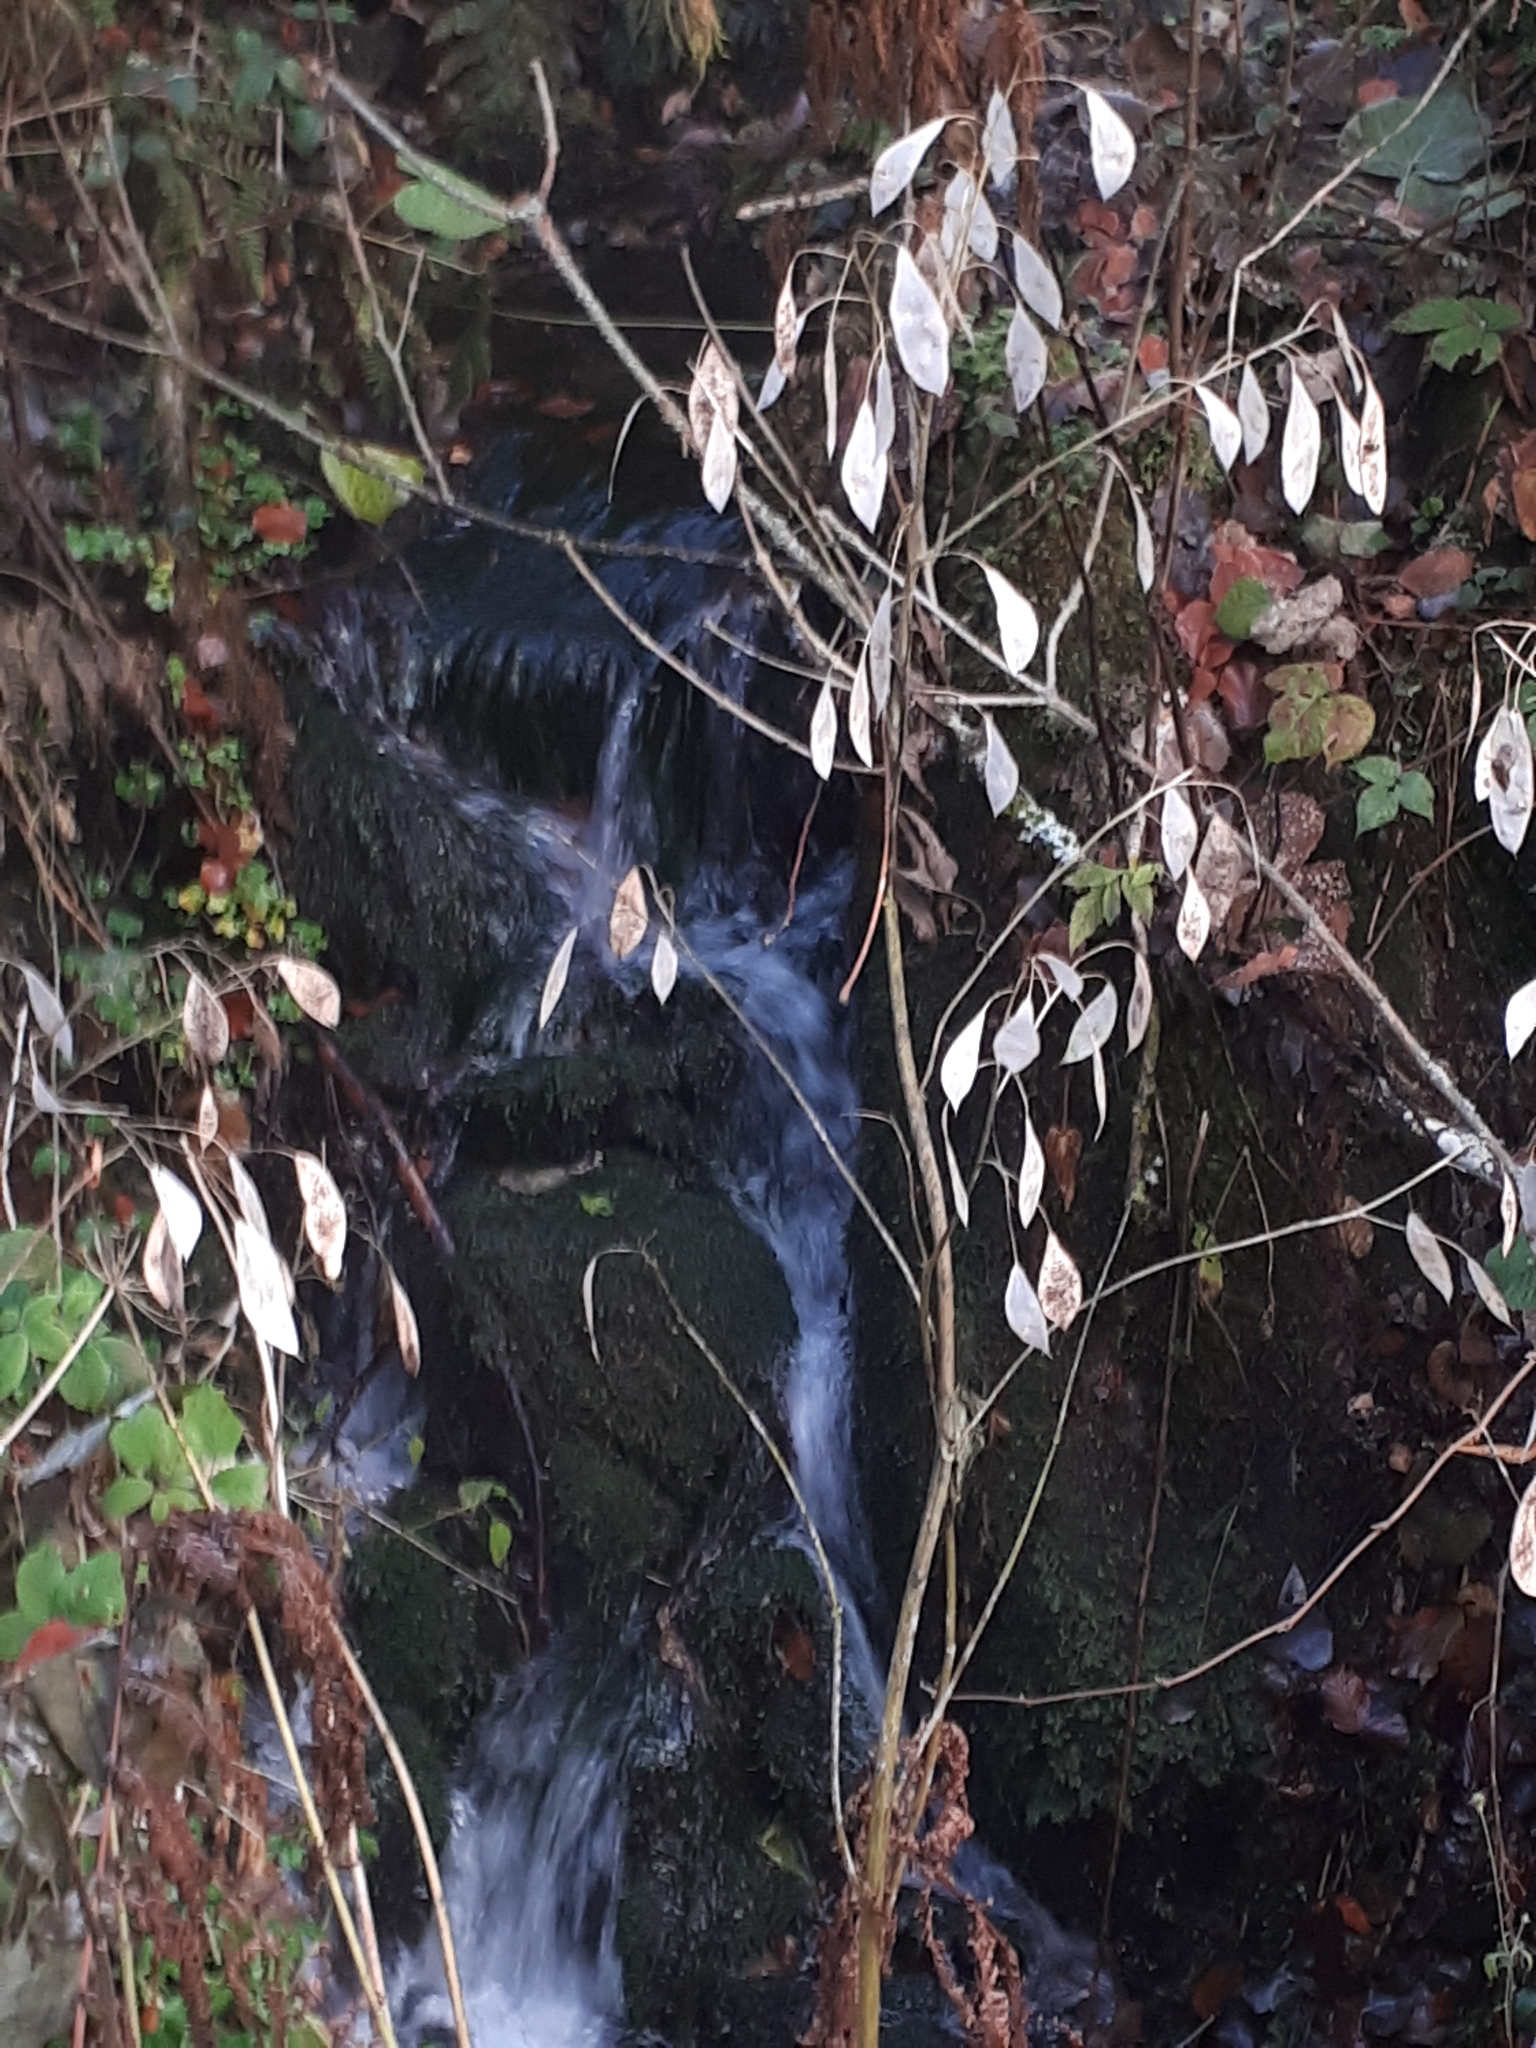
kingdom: Plantae
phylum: Tracheophyta
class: Magnoliopsida
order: Brassicales
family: Brassicaceae
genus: Lunaria
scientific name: Lunaria rediviva
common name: Perennial honesty
